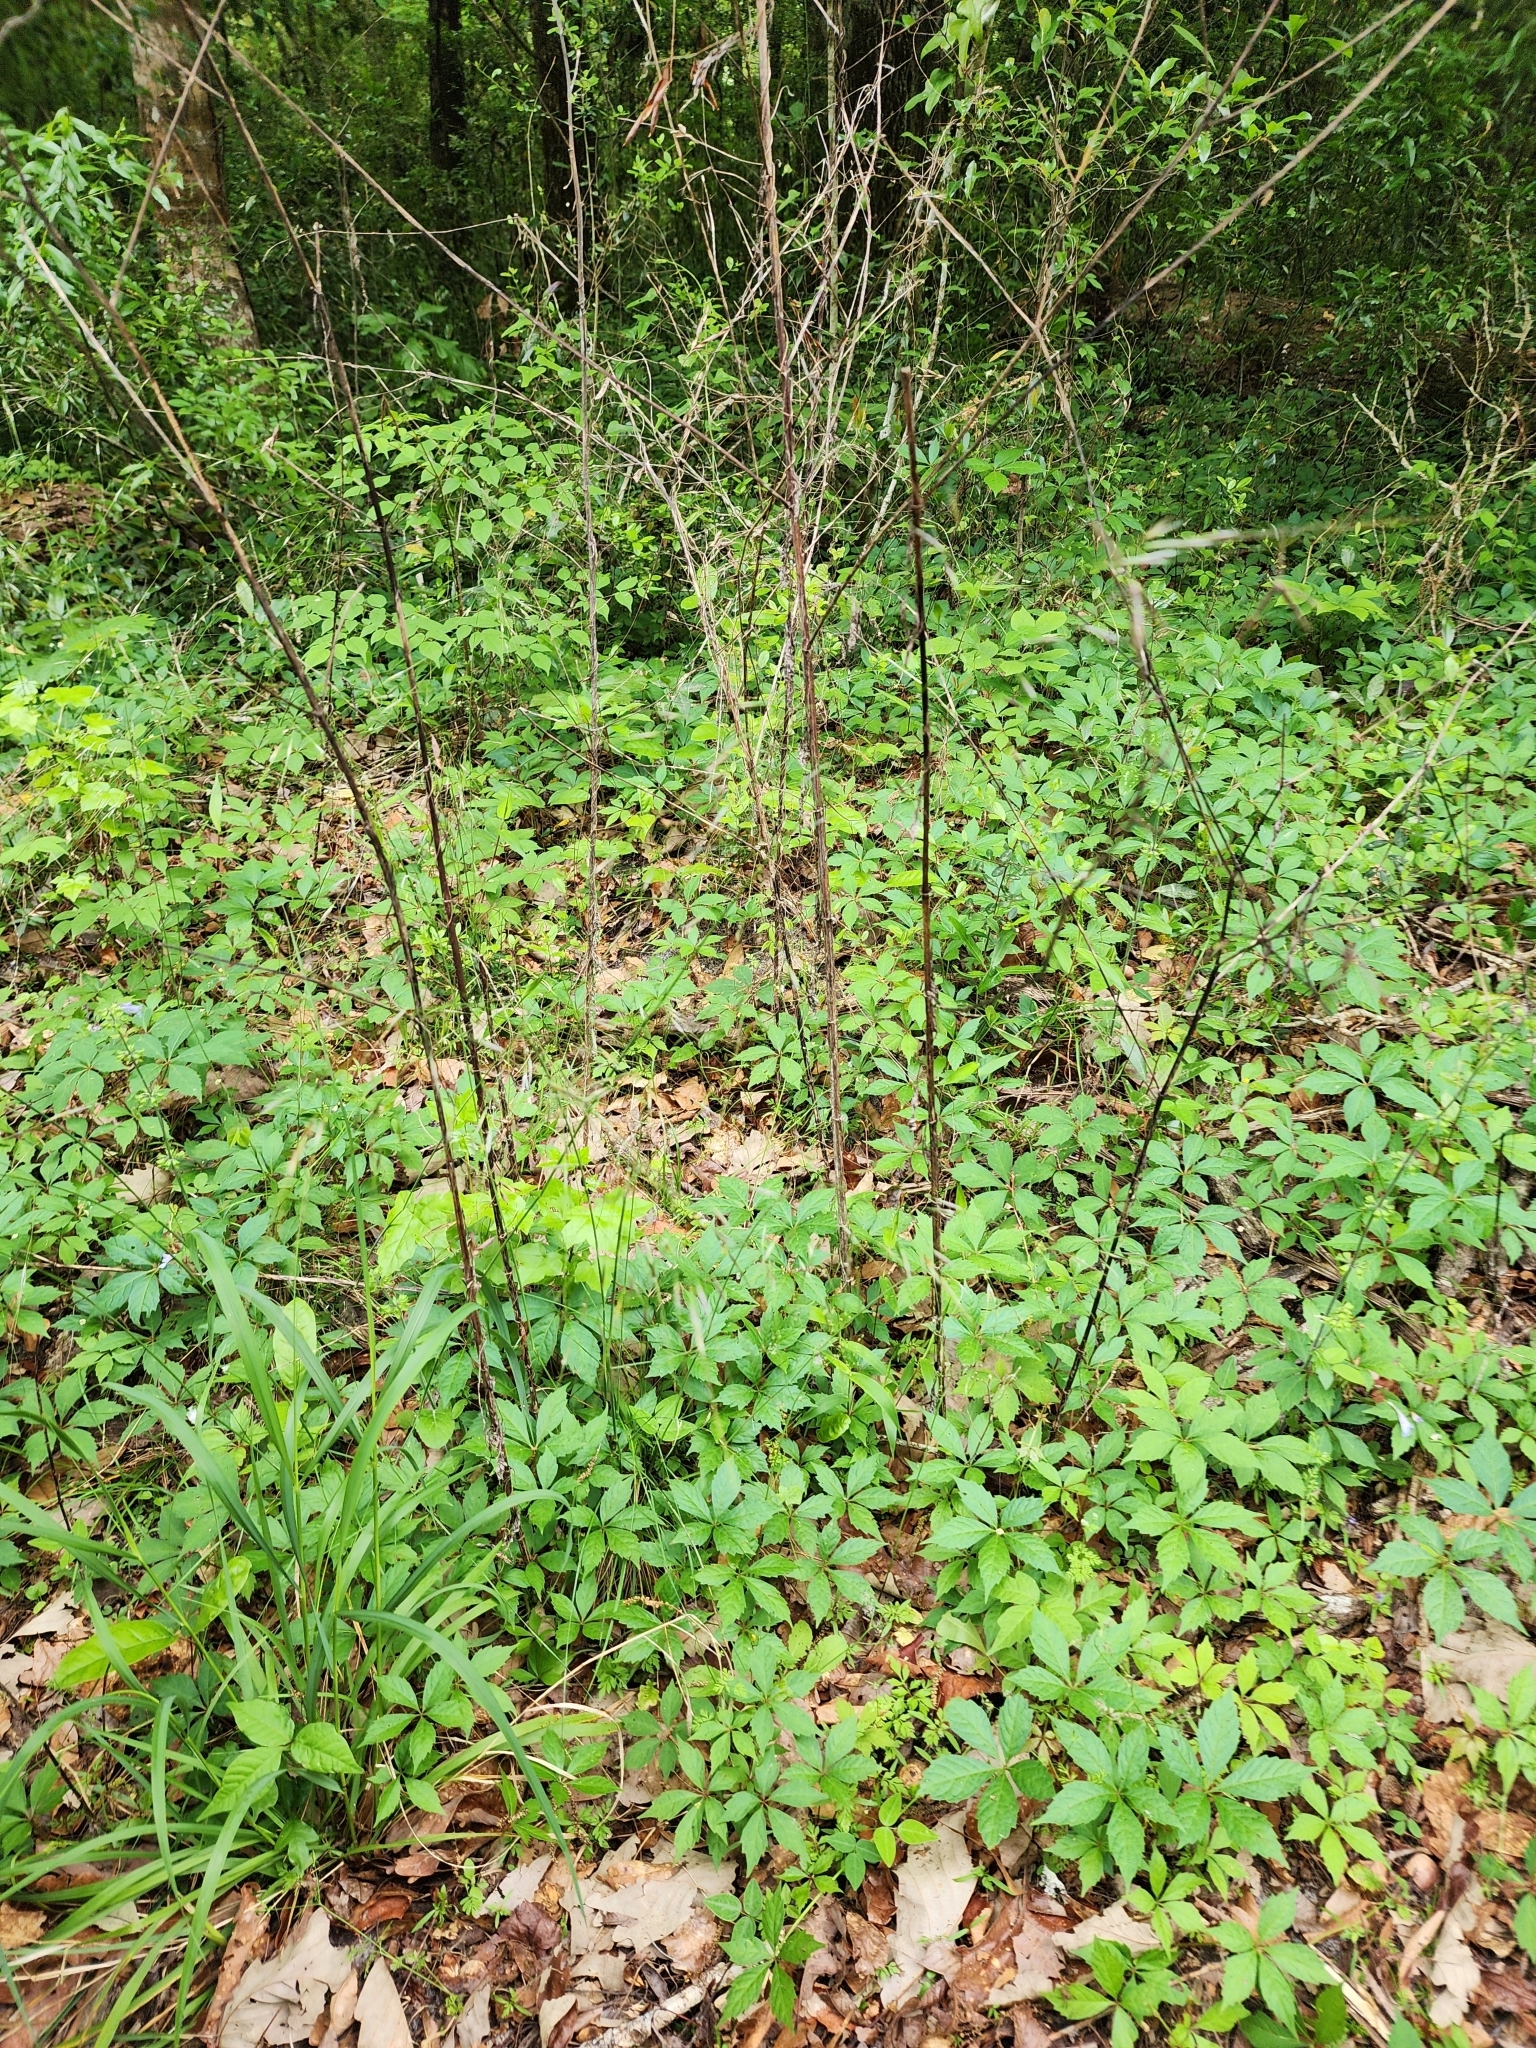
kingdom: Plantae
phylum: Tracheophyta
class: Liliopsida
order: Poales
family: Poaceae
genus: Piptochaetium
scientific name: Piptochaetium avenaceum
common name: Black bunchgrass
